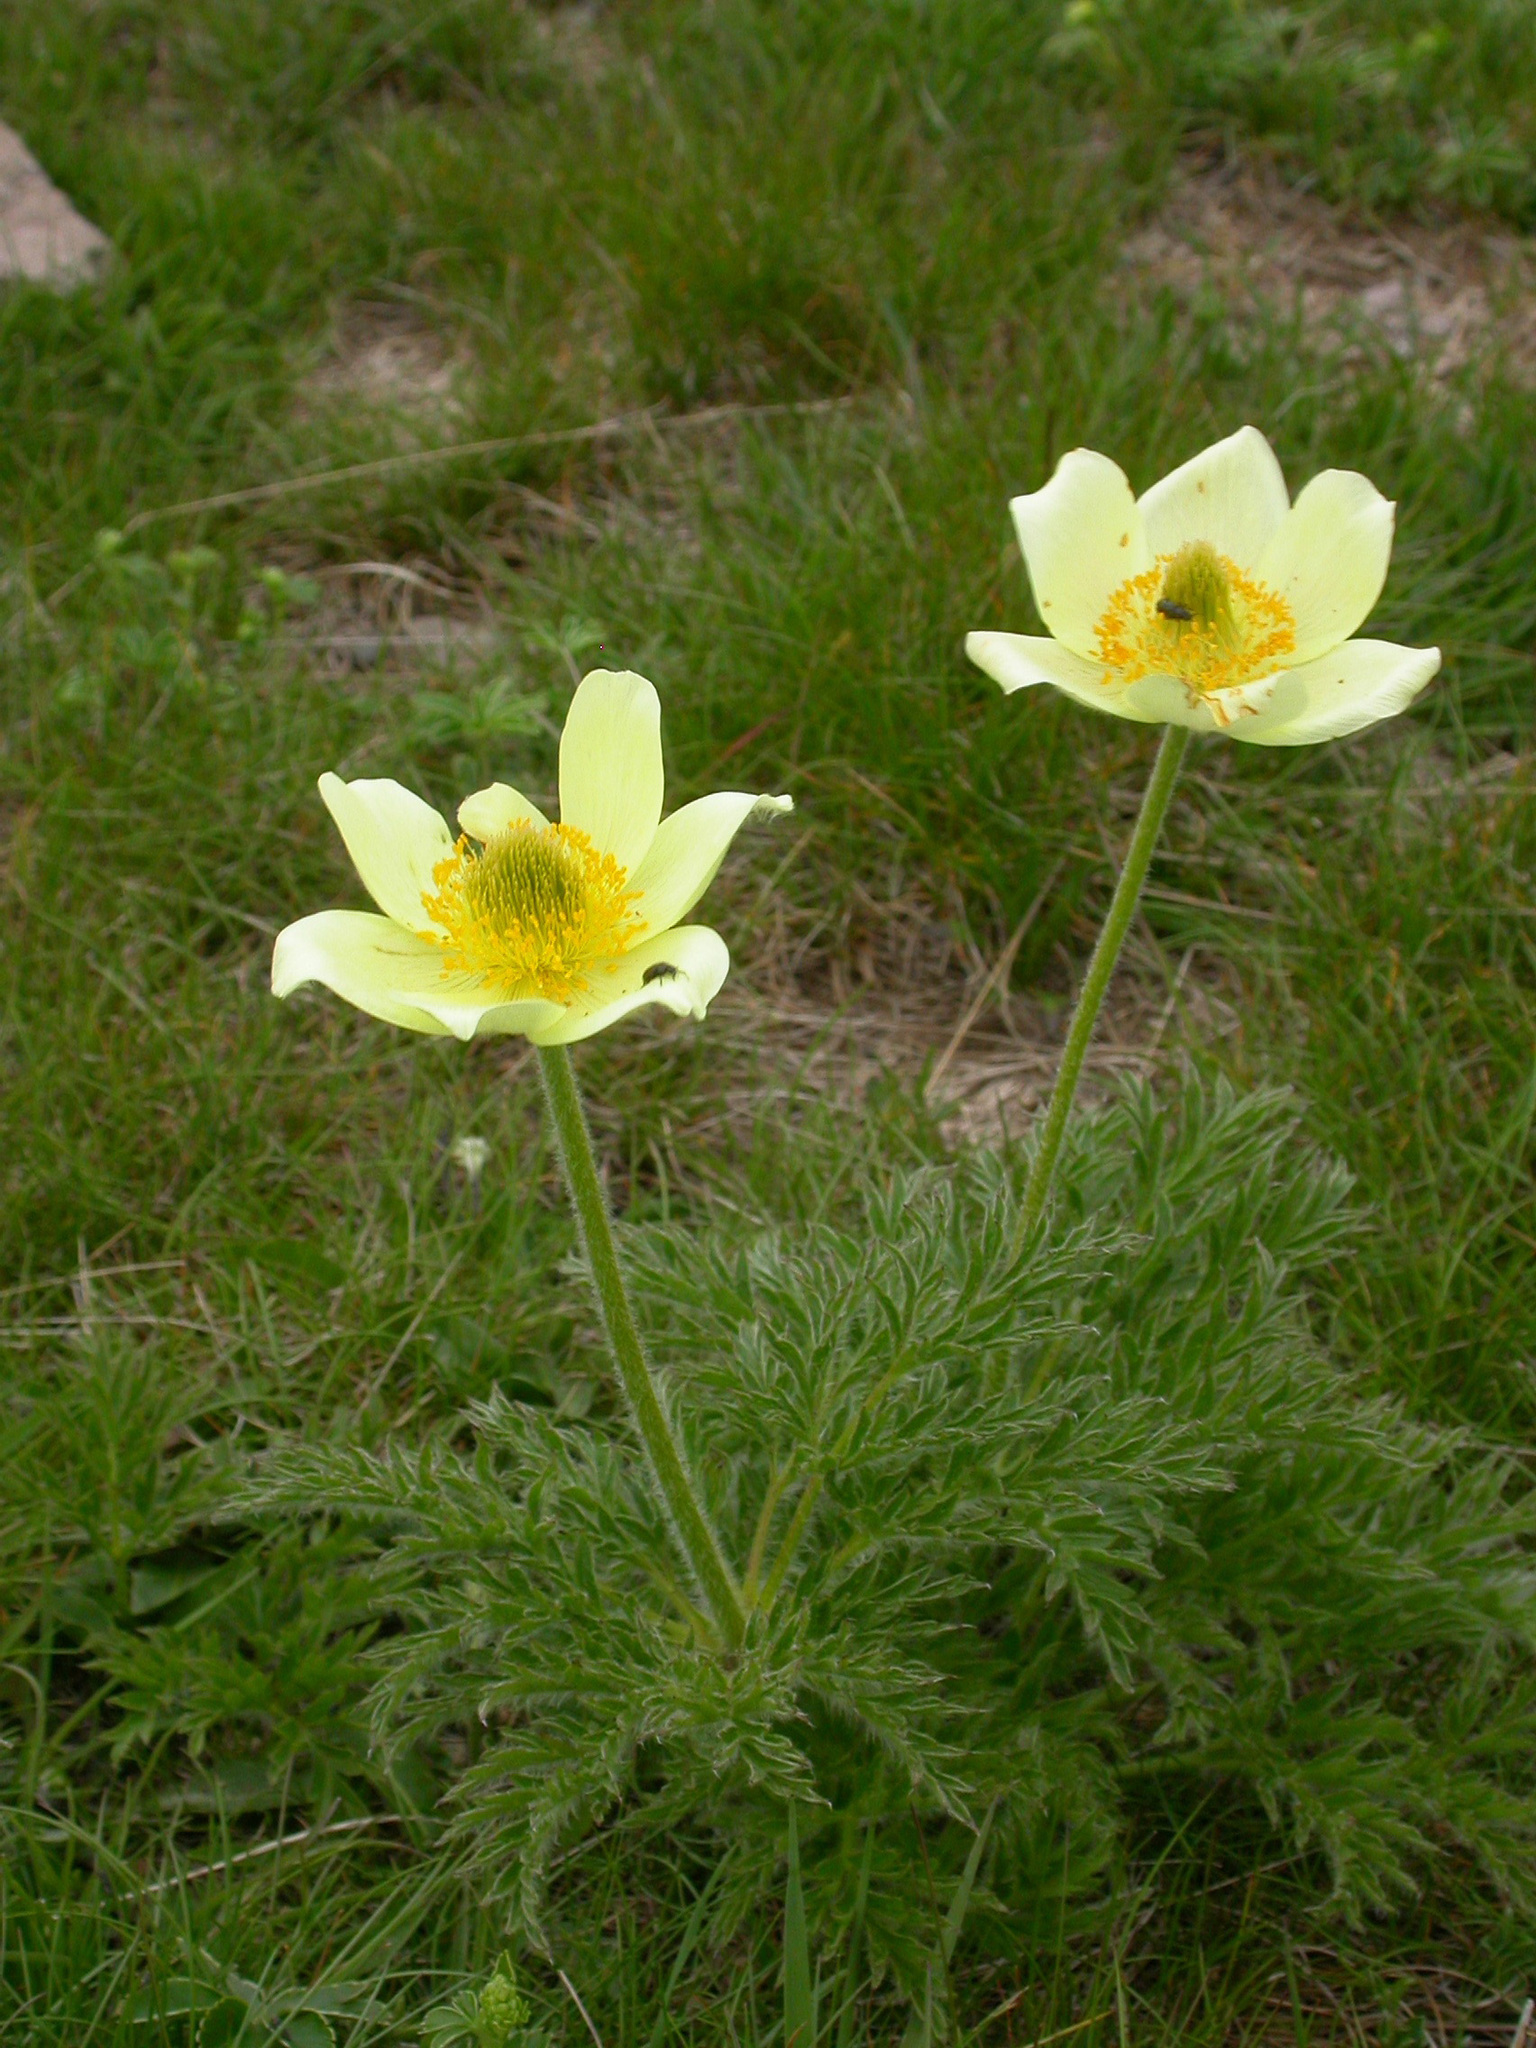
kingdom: Plantae
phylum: Tracheophyta
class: Magnoliopsida
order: Ranunculales
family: Ranunculaceae
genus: Pulsatilla
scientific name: Pulsatilla alpina
